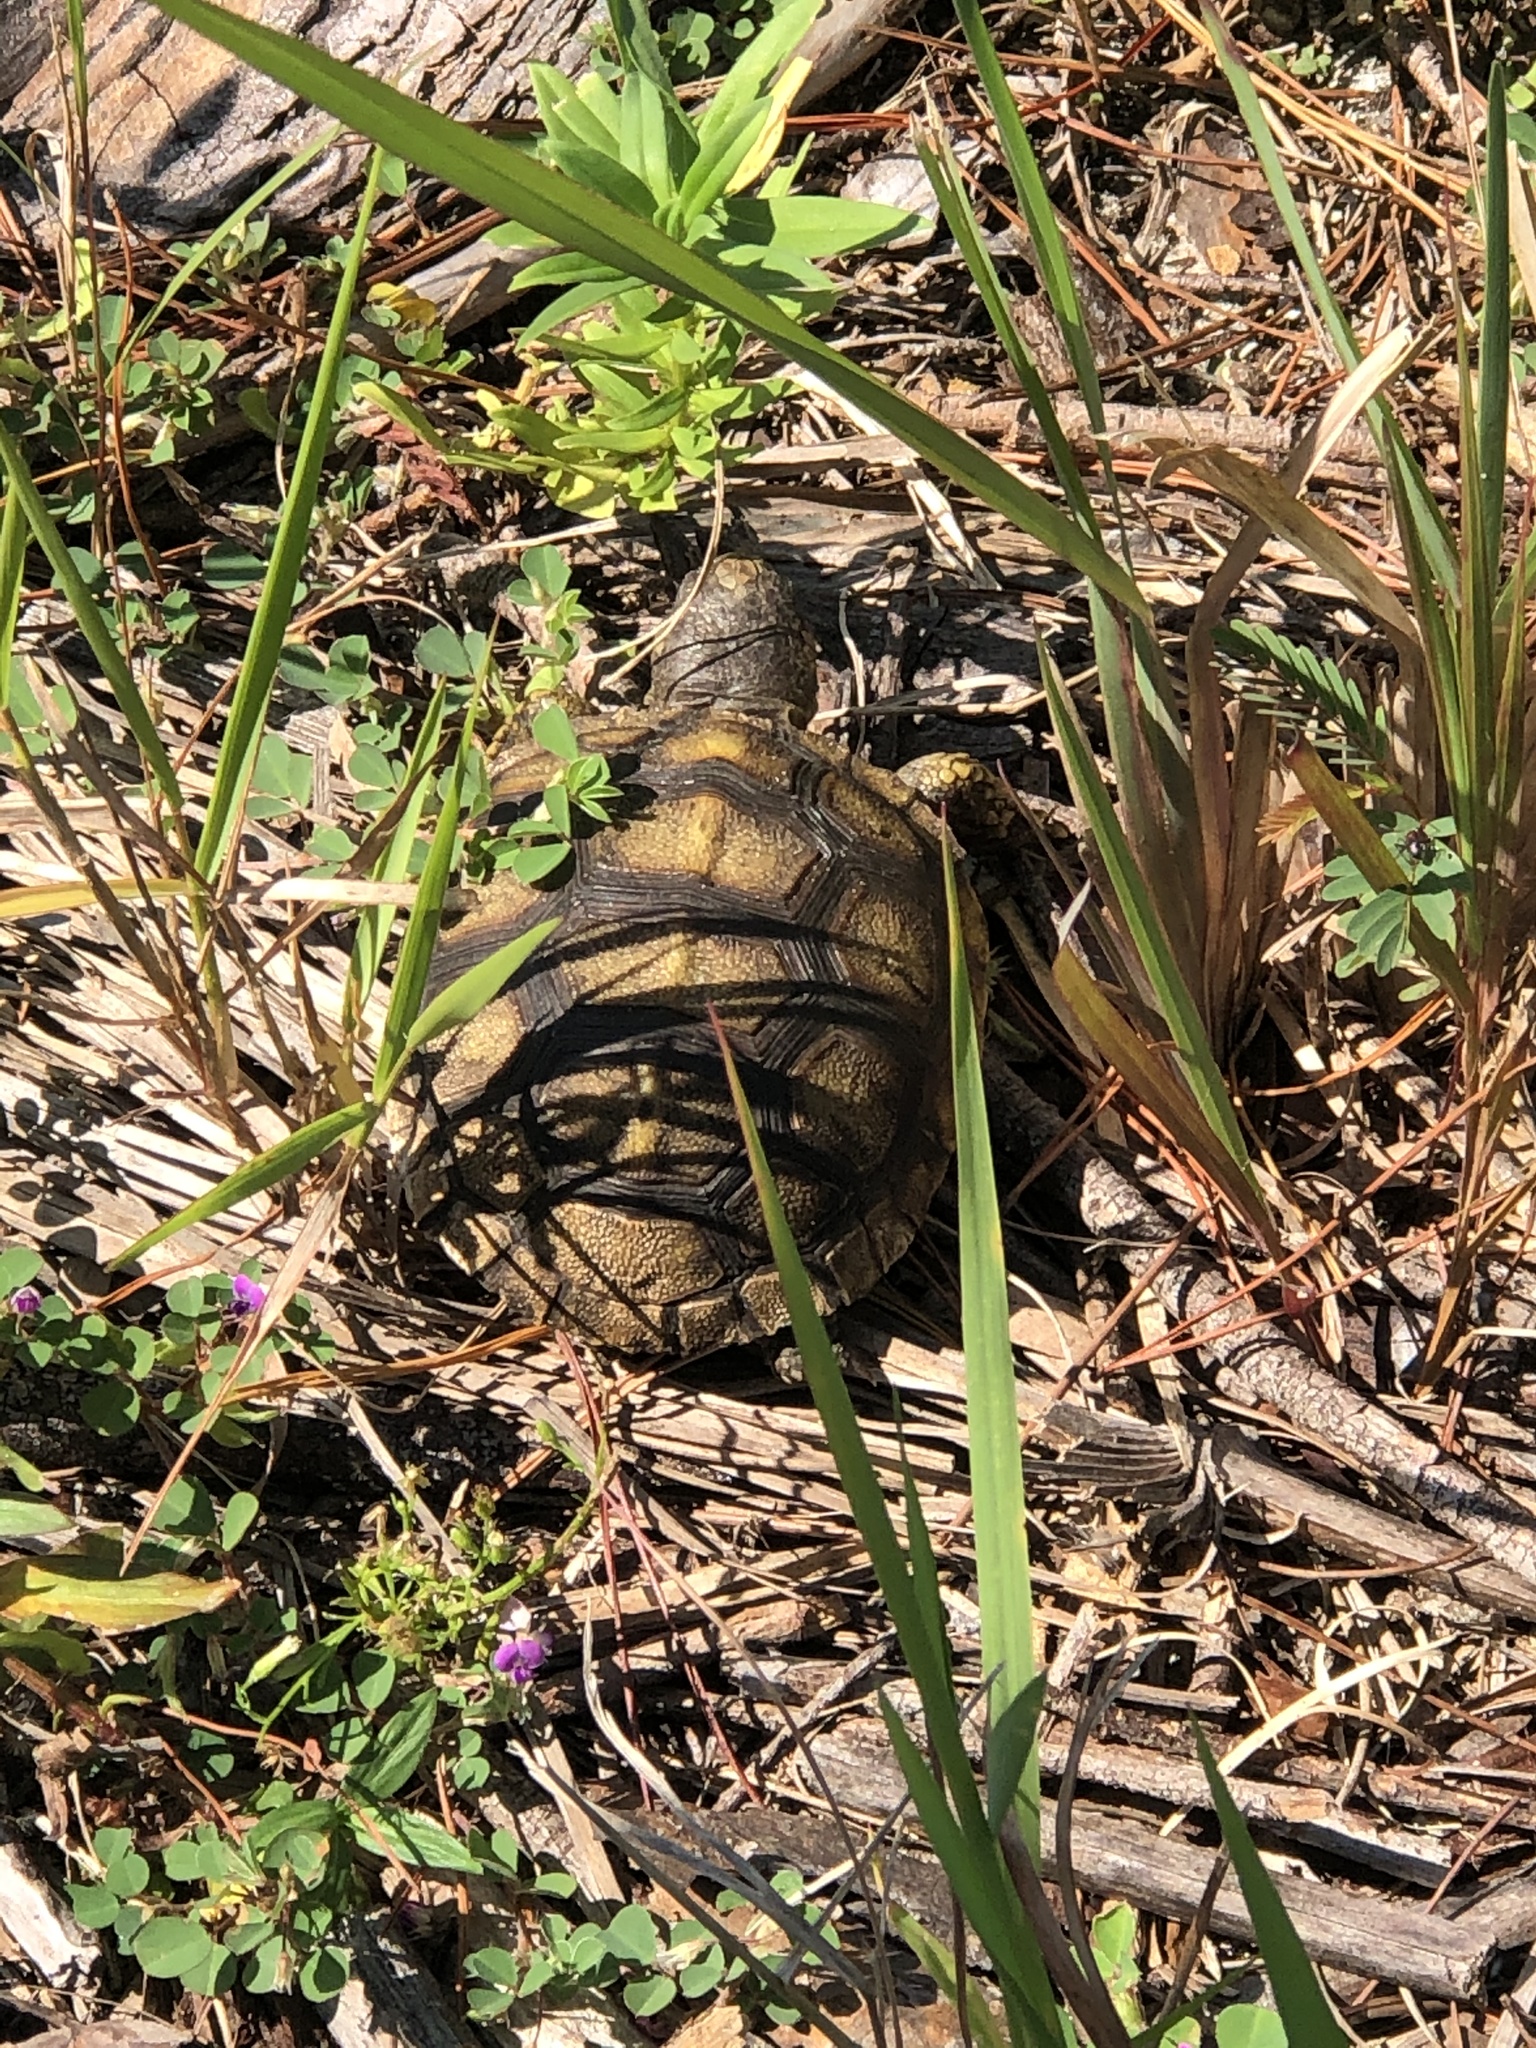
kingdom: Animalia
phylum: Chordata
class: Testudines
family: Testudinidae
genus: Gopherus
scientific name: Gopherus polyphemus
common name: Florida gopher tortoise
